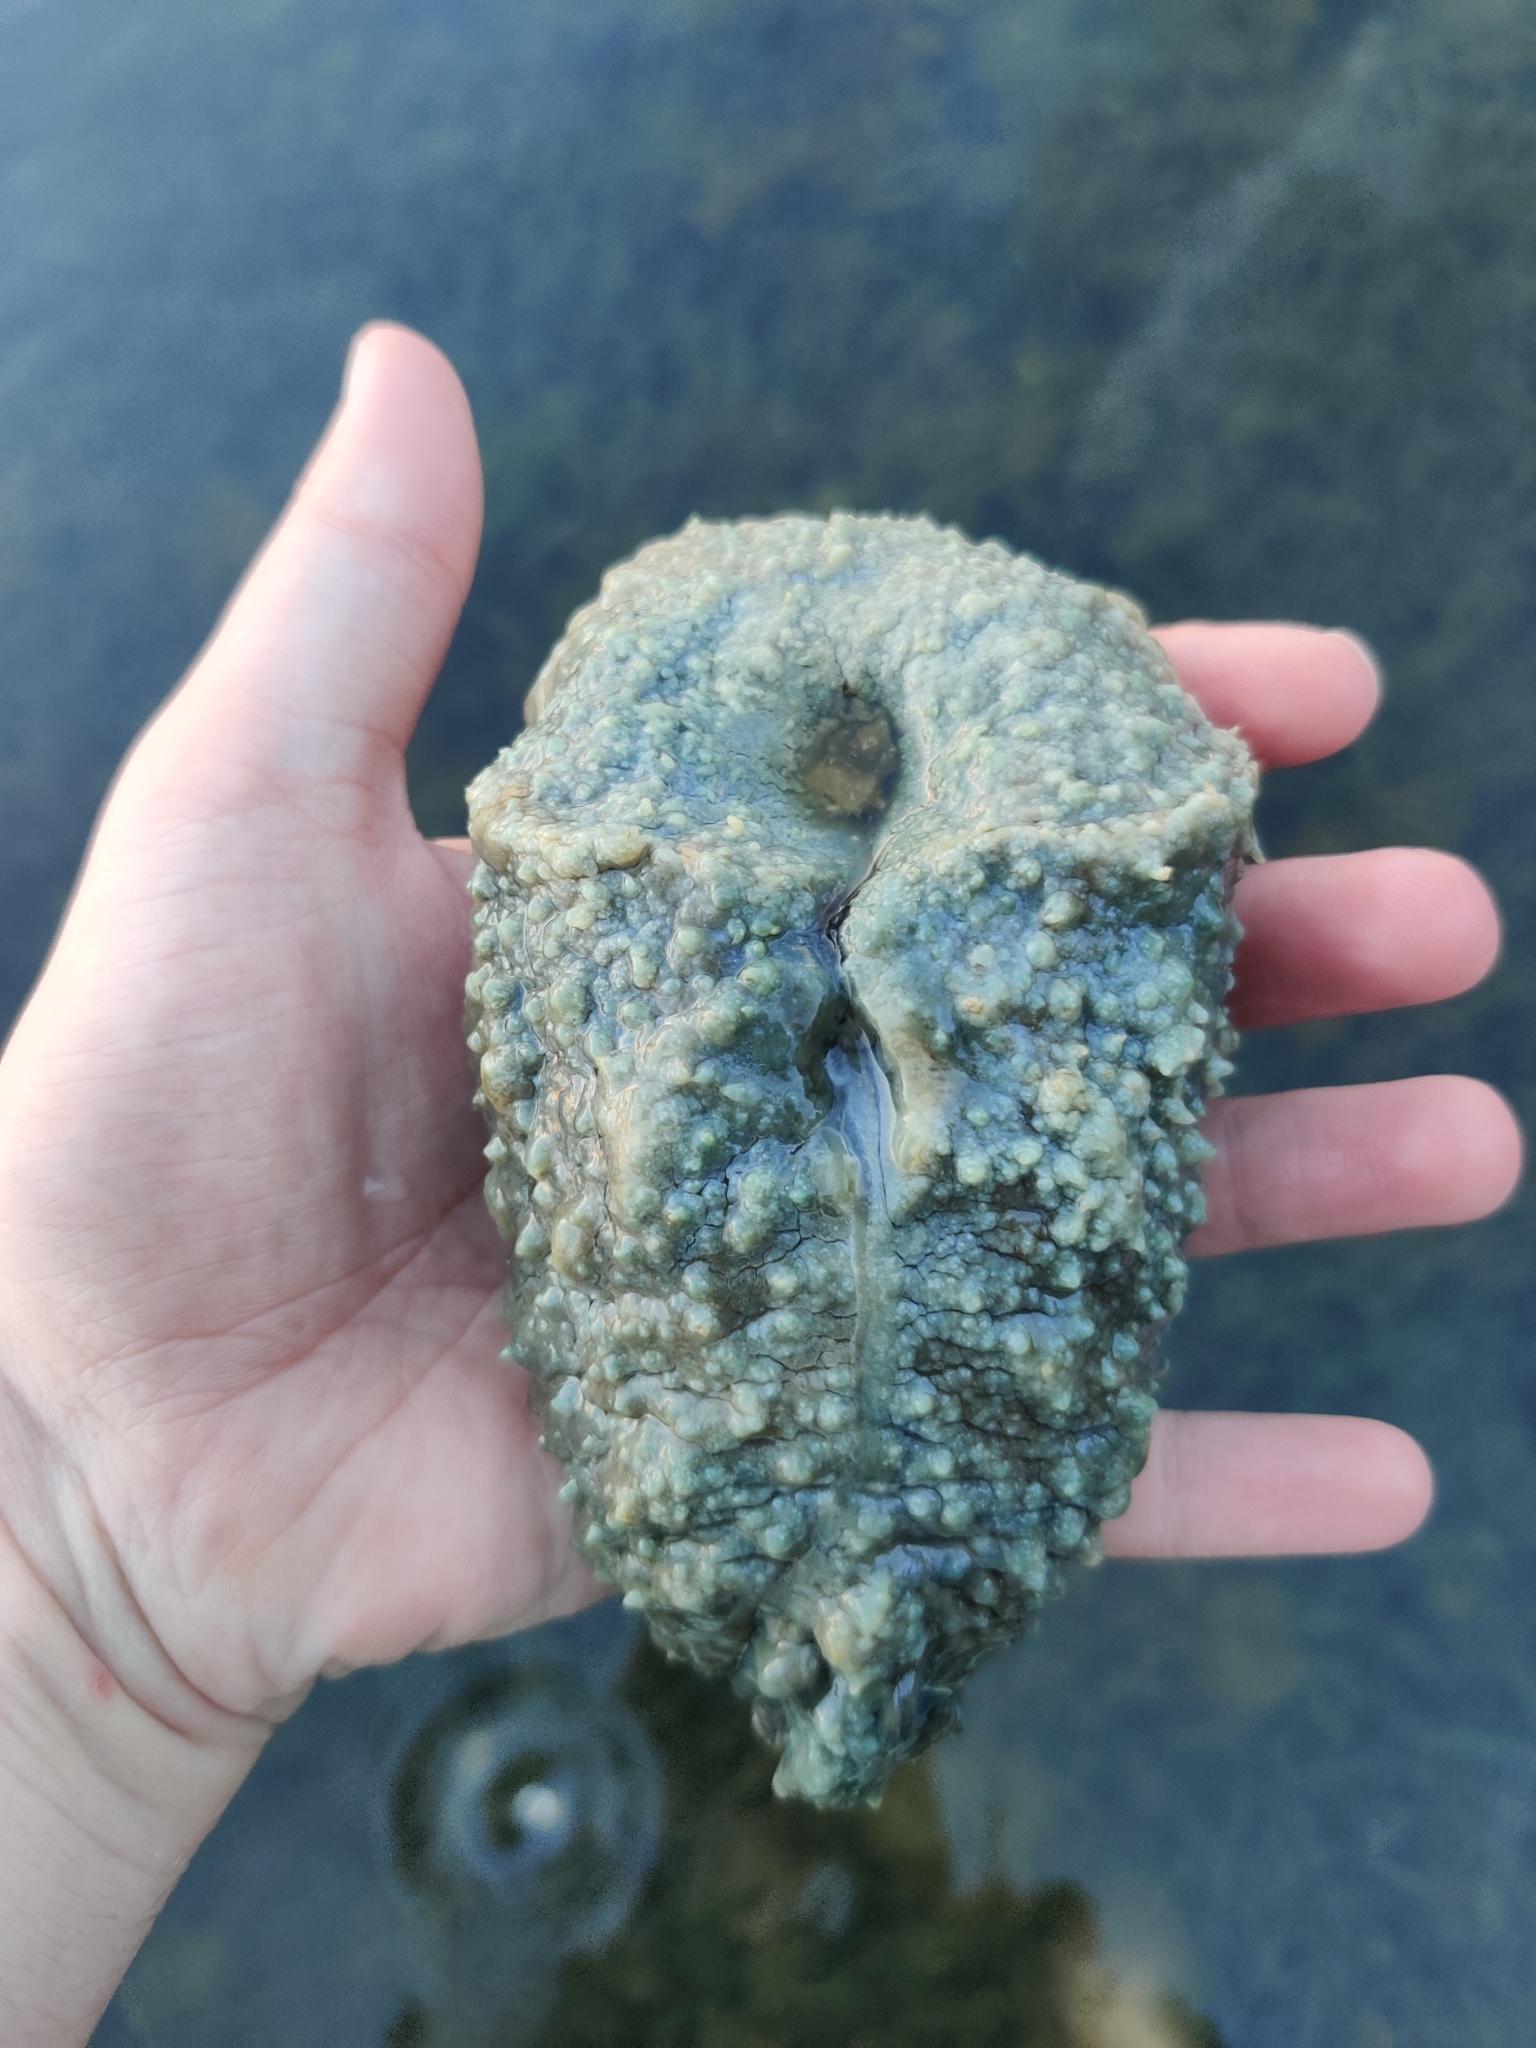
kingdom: Animalia
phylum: Mollusca
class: Gastropoda
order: Aplysiida
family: Aplysiidae
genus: Dolabella
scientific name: Dolabella auricularia
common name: Blunt-end seahare
